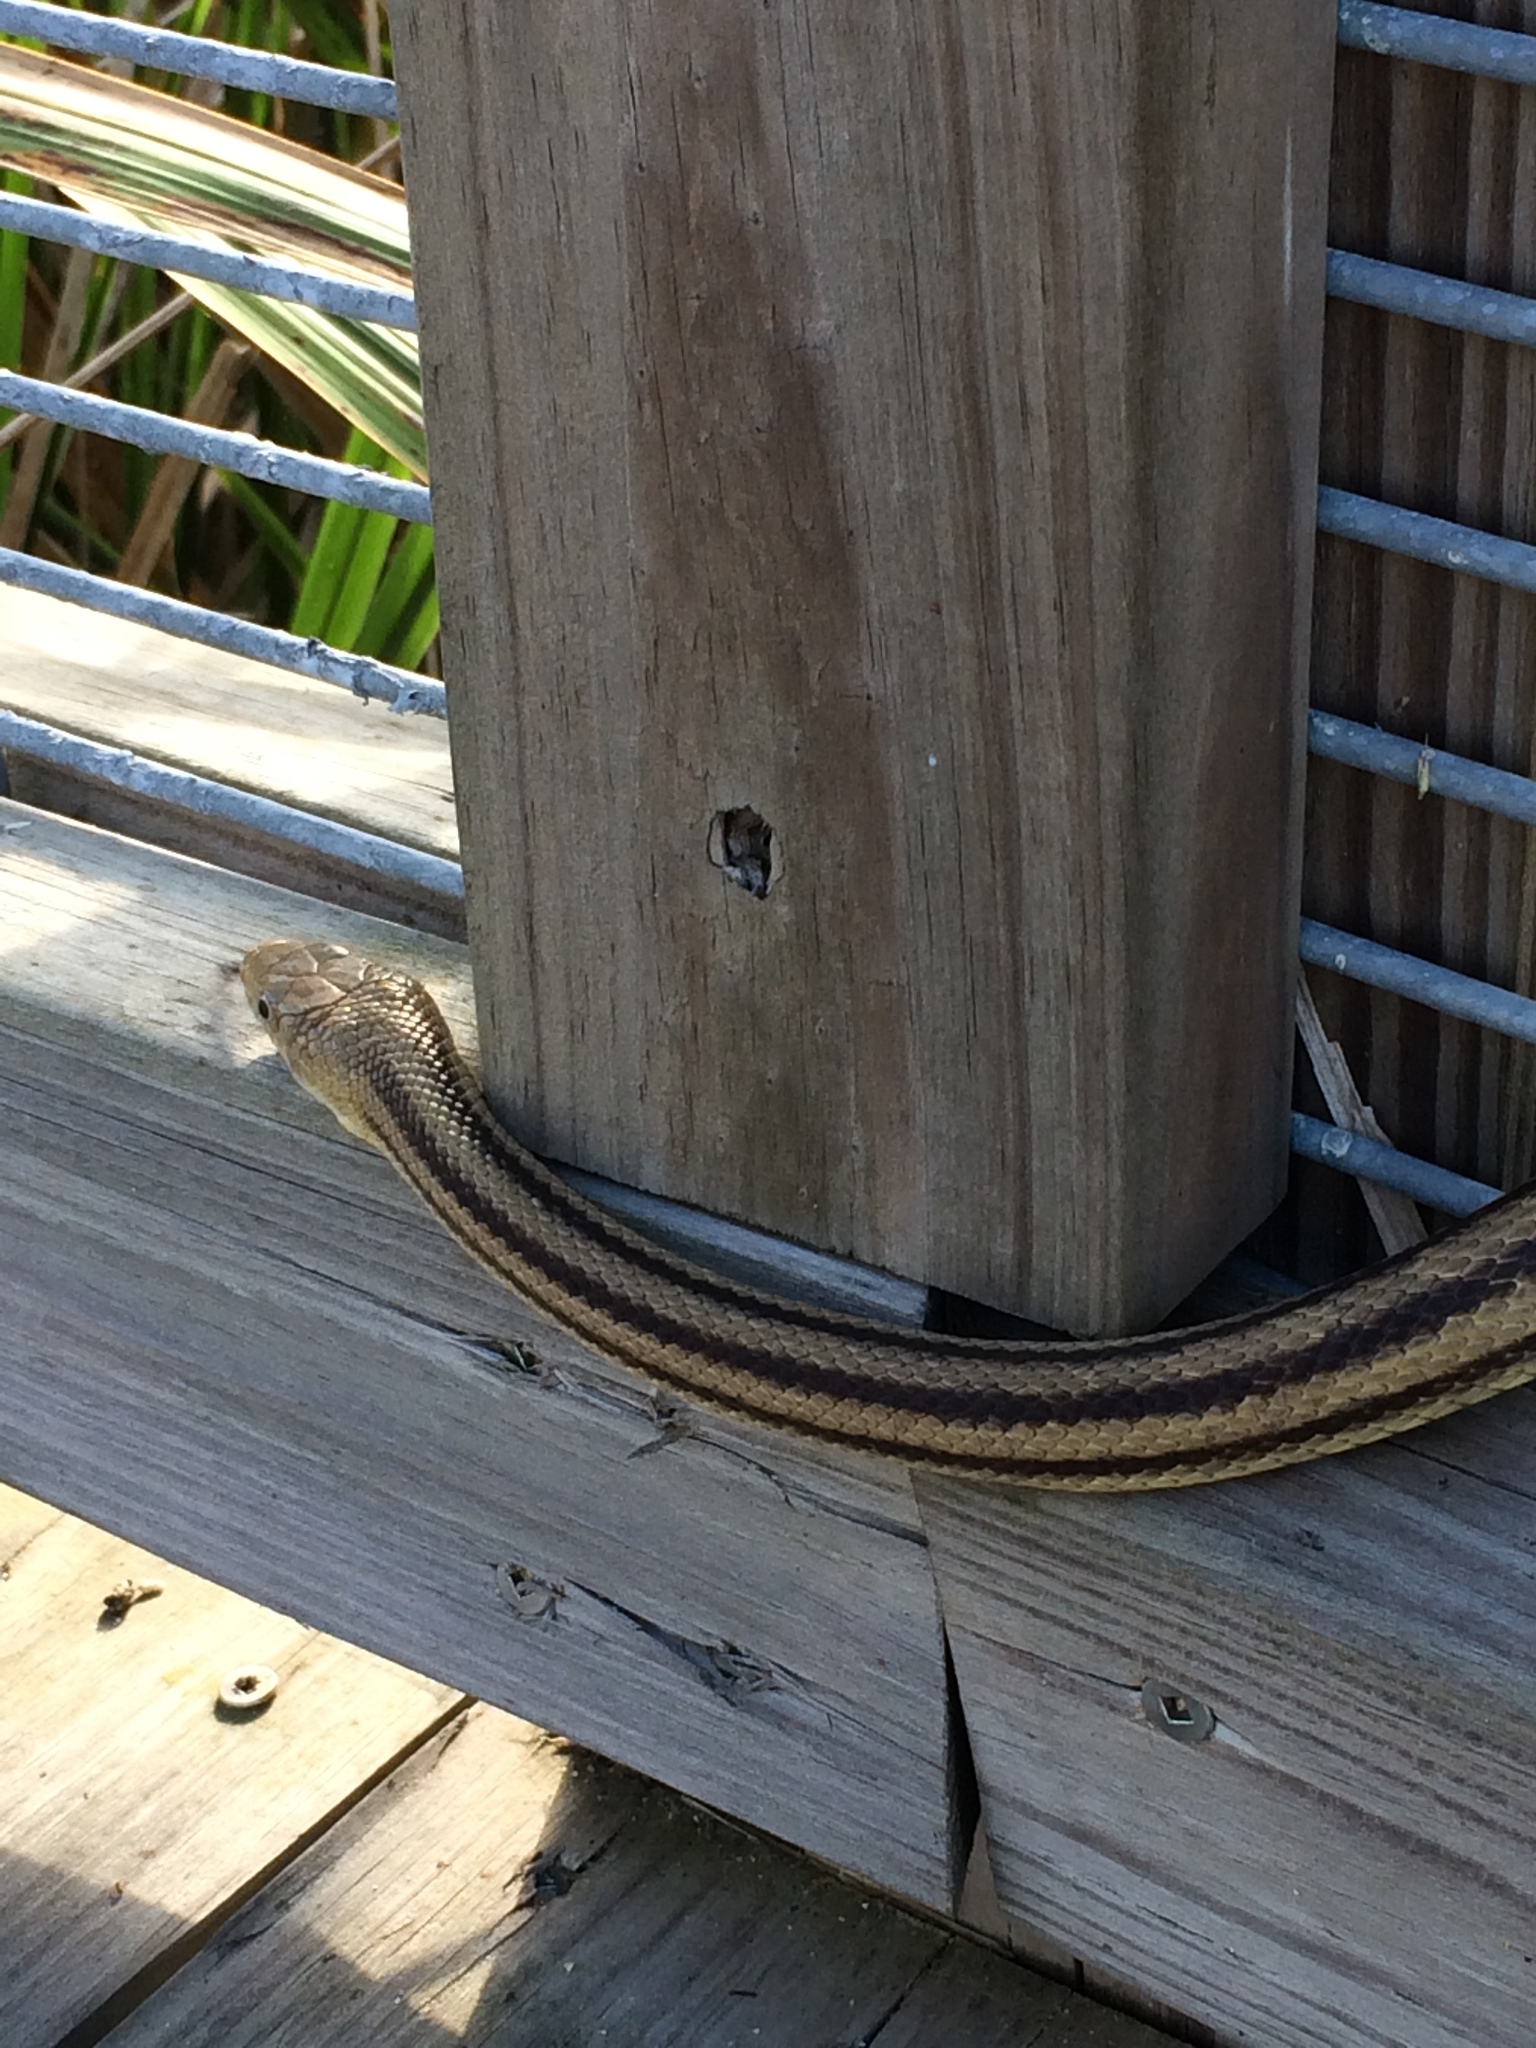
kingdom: Animalia
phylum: Chordata
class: Squamata
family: Colubridae
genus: Pantherophis
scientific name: Pantherophis alleghaniensis
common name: Eastern rat snake
